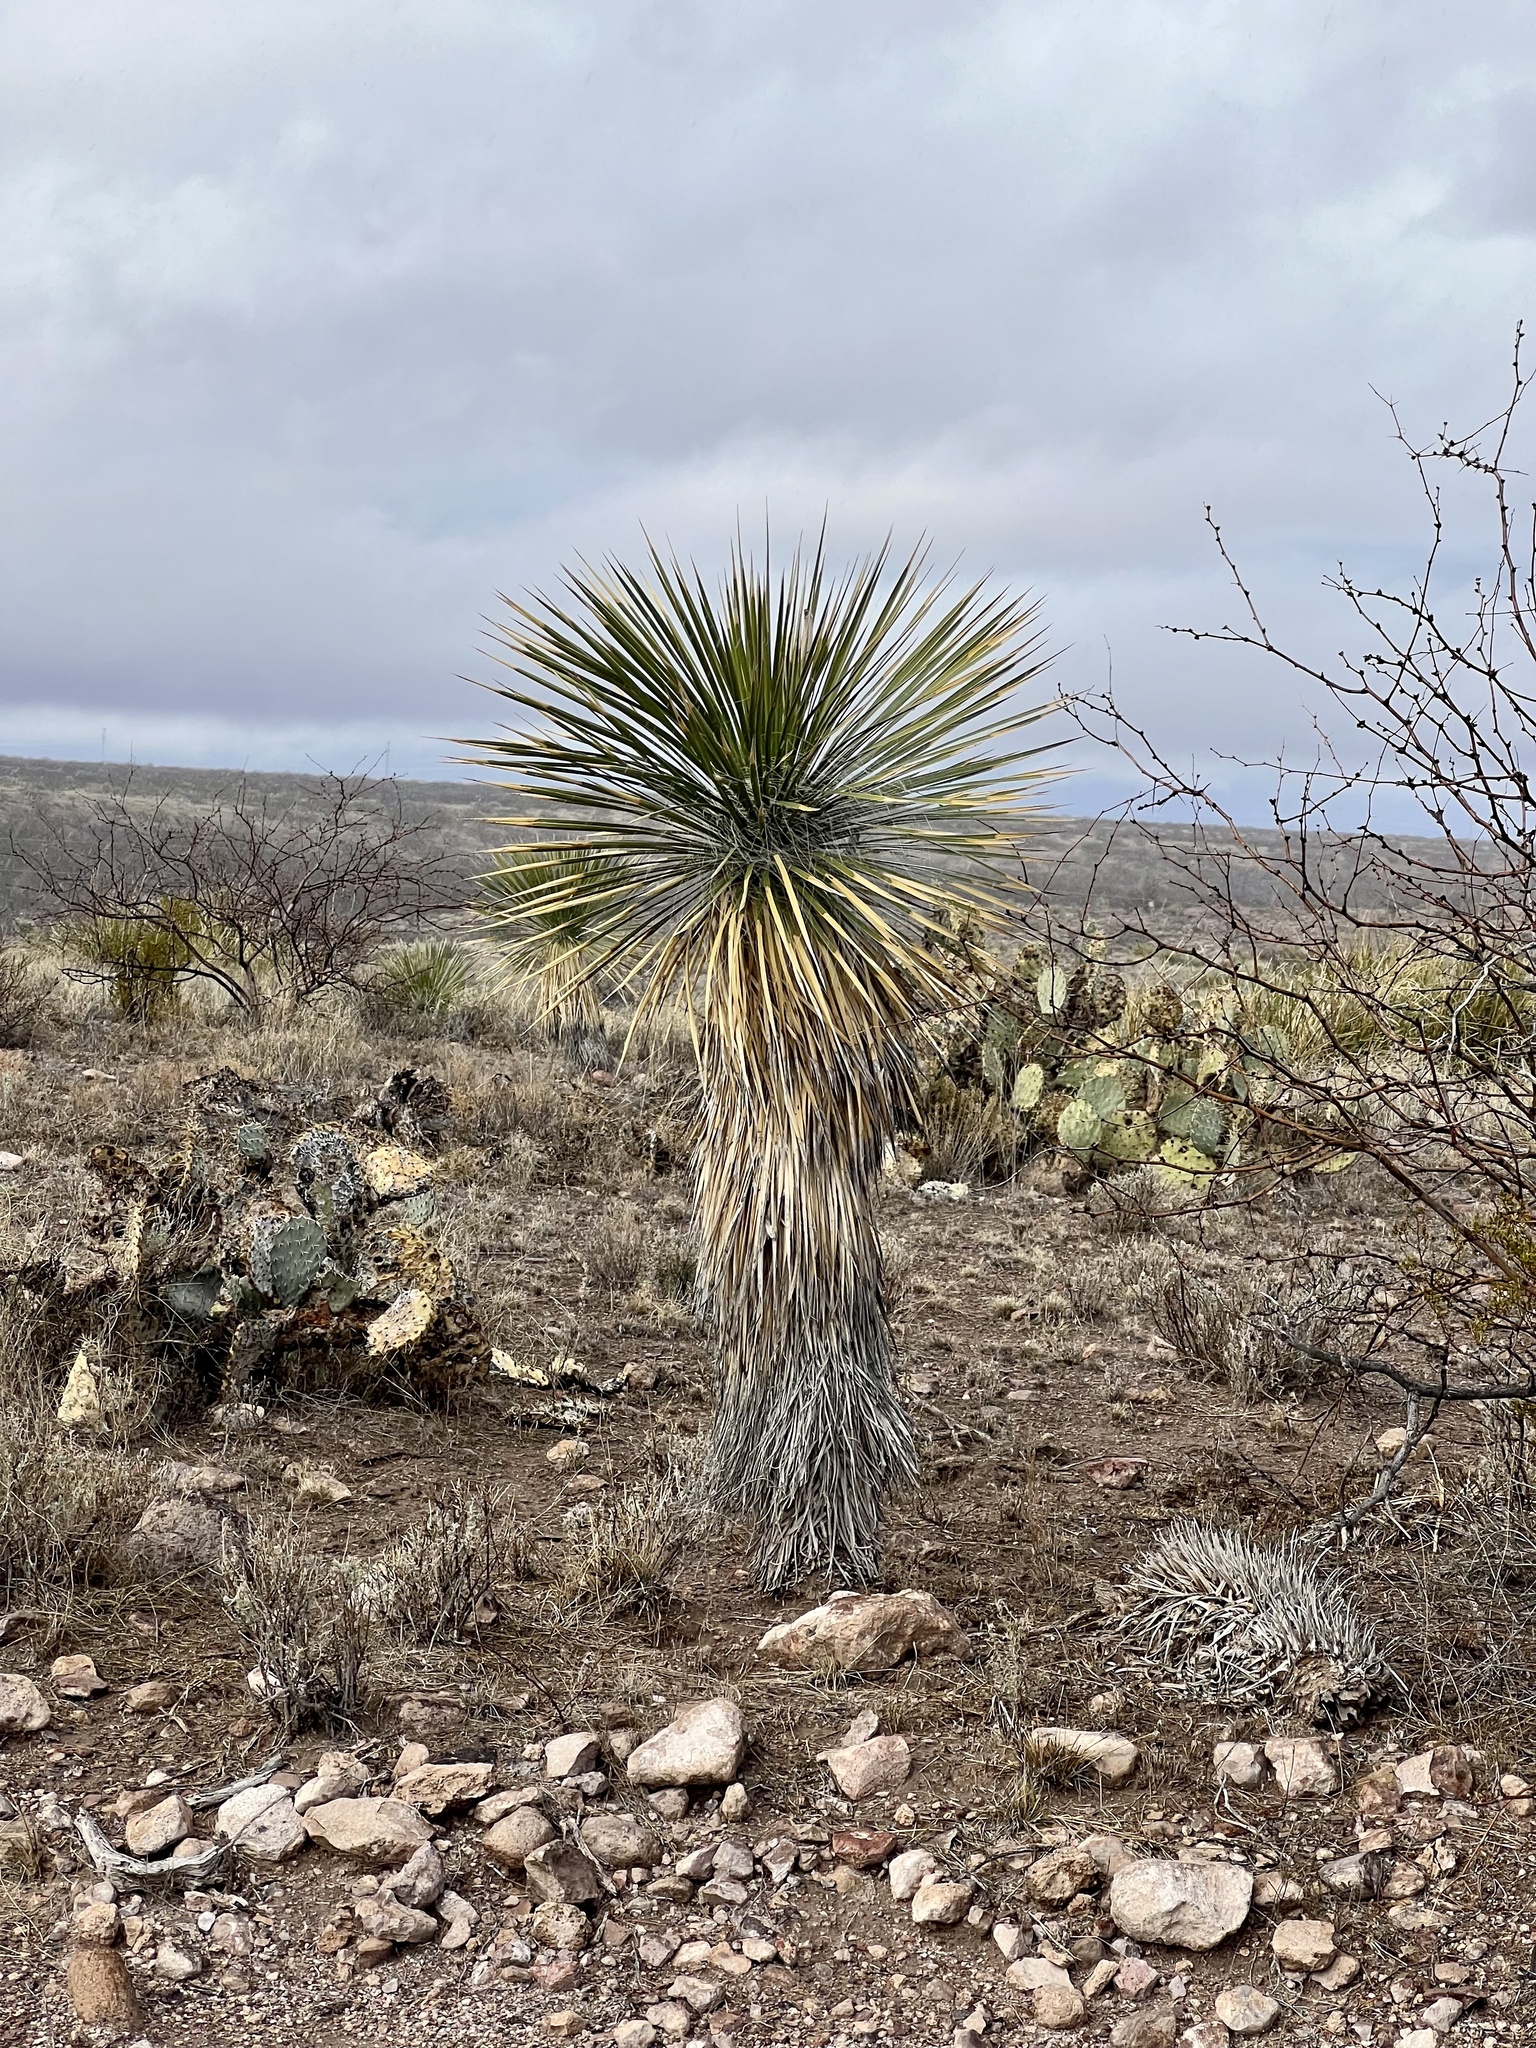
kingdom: Plantae
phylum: Tracheophyta
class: Liliopsida
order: Asparagales
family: Asparagaceae
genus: Yucca
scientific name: Yucca elata
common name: Palmella
